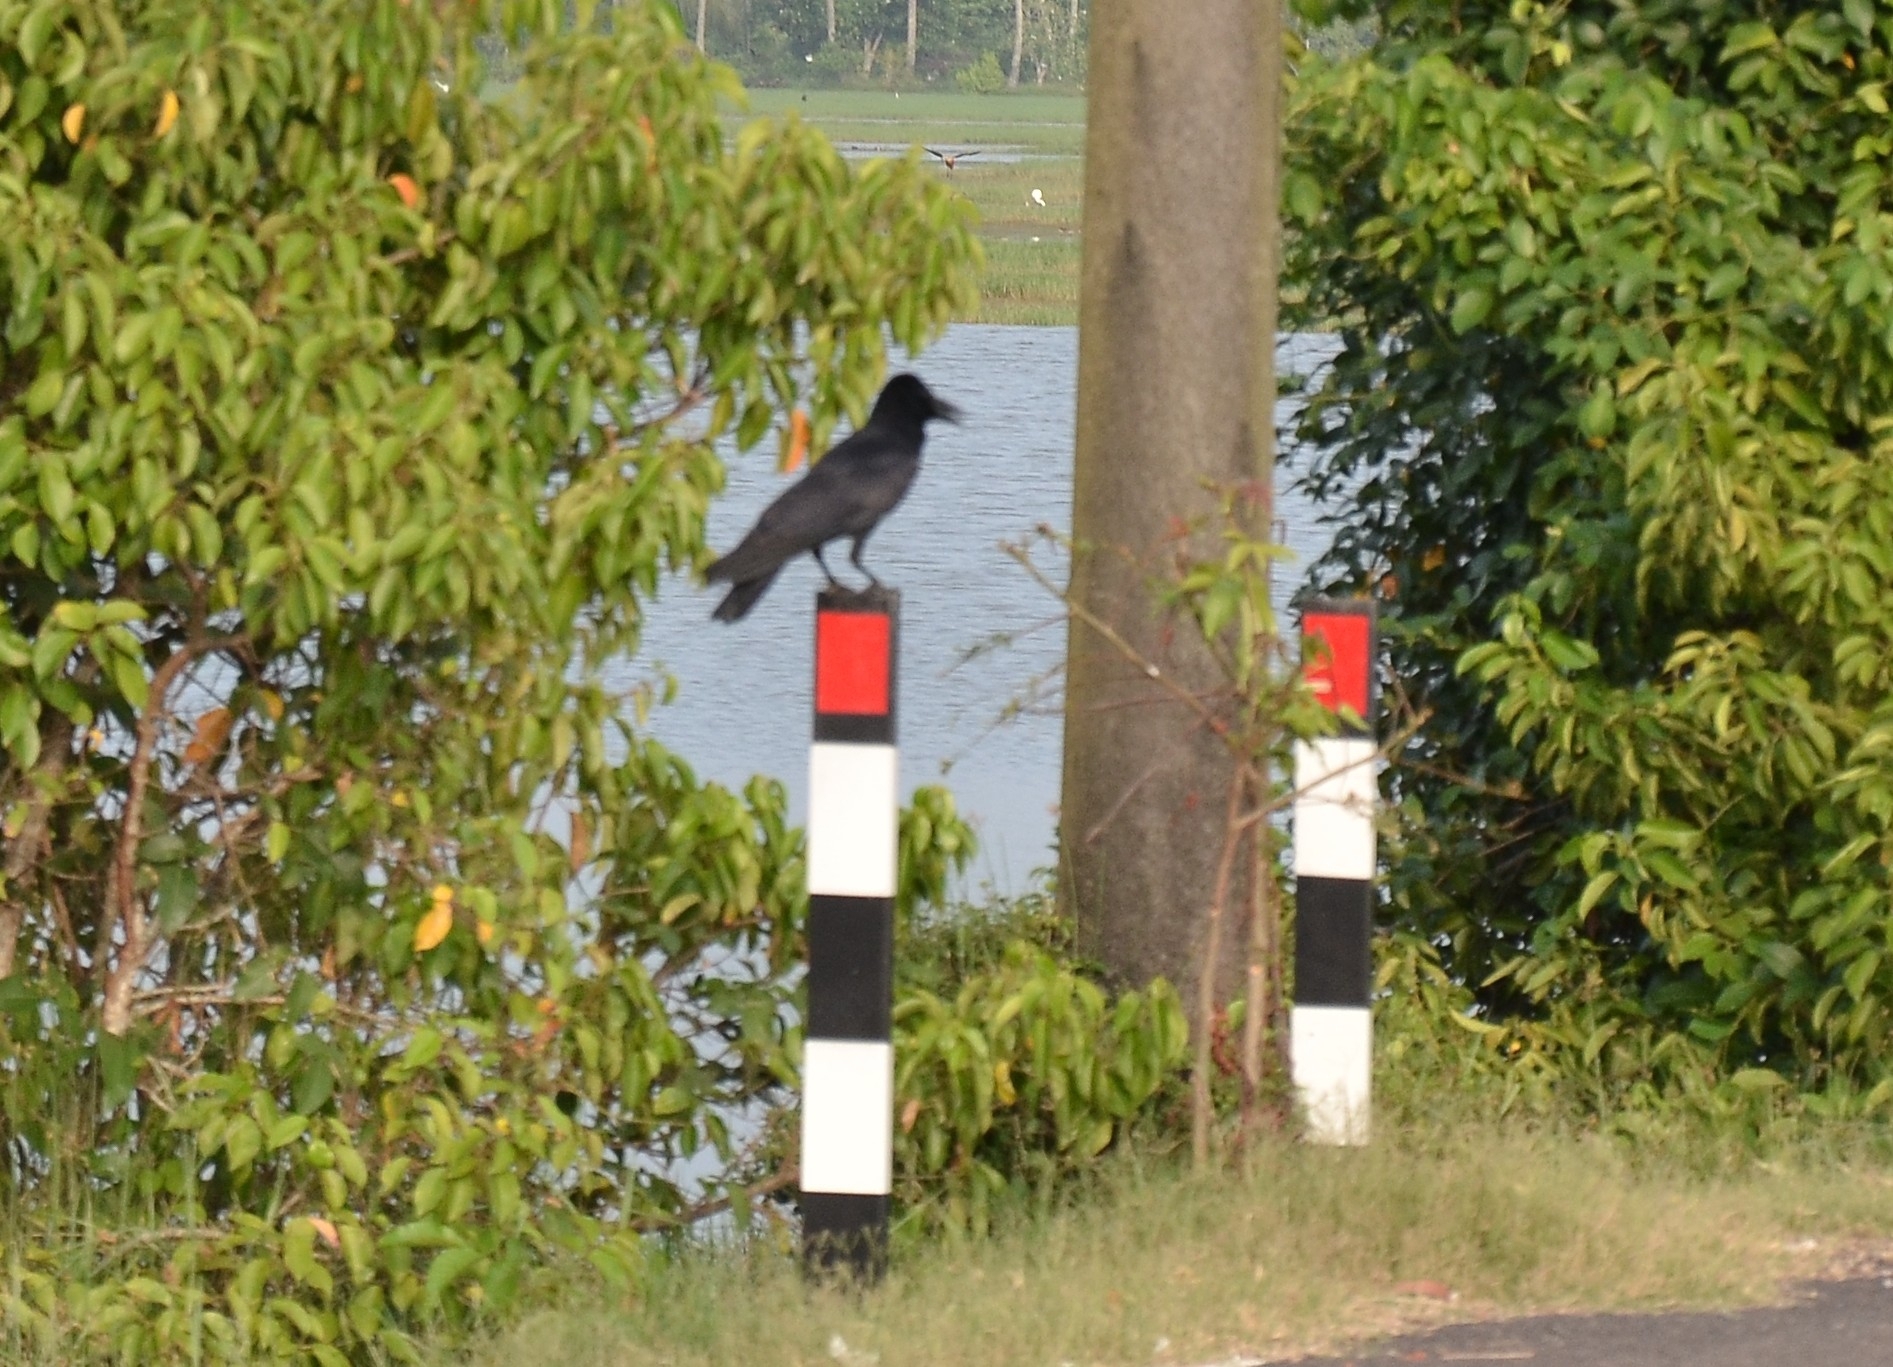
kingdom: Animalia
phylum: Chordata
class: Aves
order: Passeriformes
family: Corvidae
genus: Corvus
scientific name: Corvus macrorhynchos
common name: Large-billed crow
